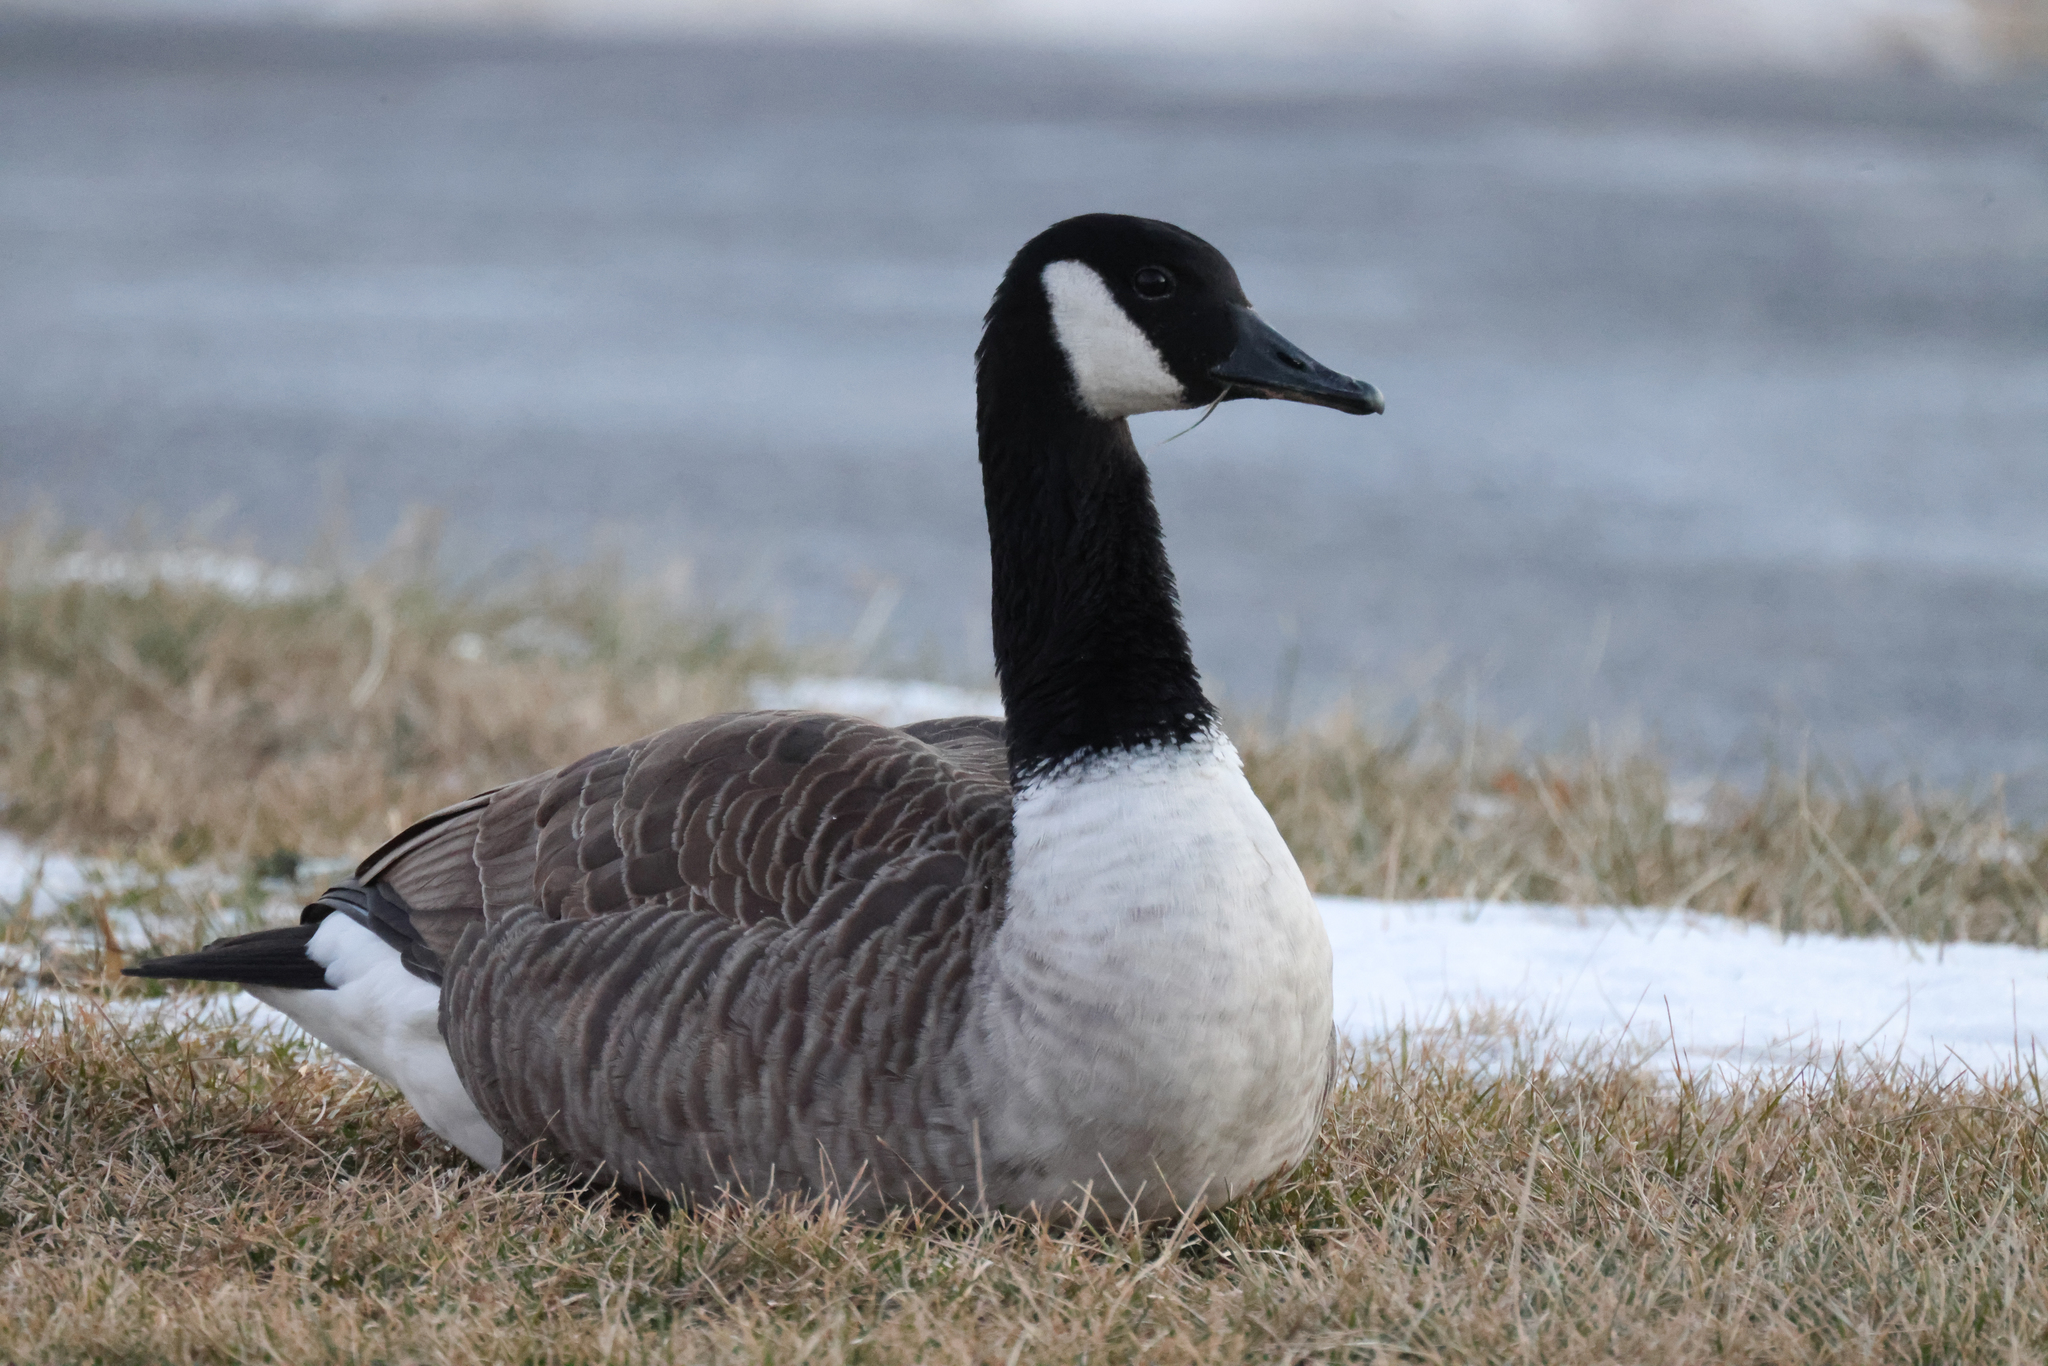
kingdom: Animalia
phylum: Chordata
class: Aves
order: Anseriformes
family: Anatidae
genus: Branta
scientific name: Branta canadensis
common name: Canada goose
